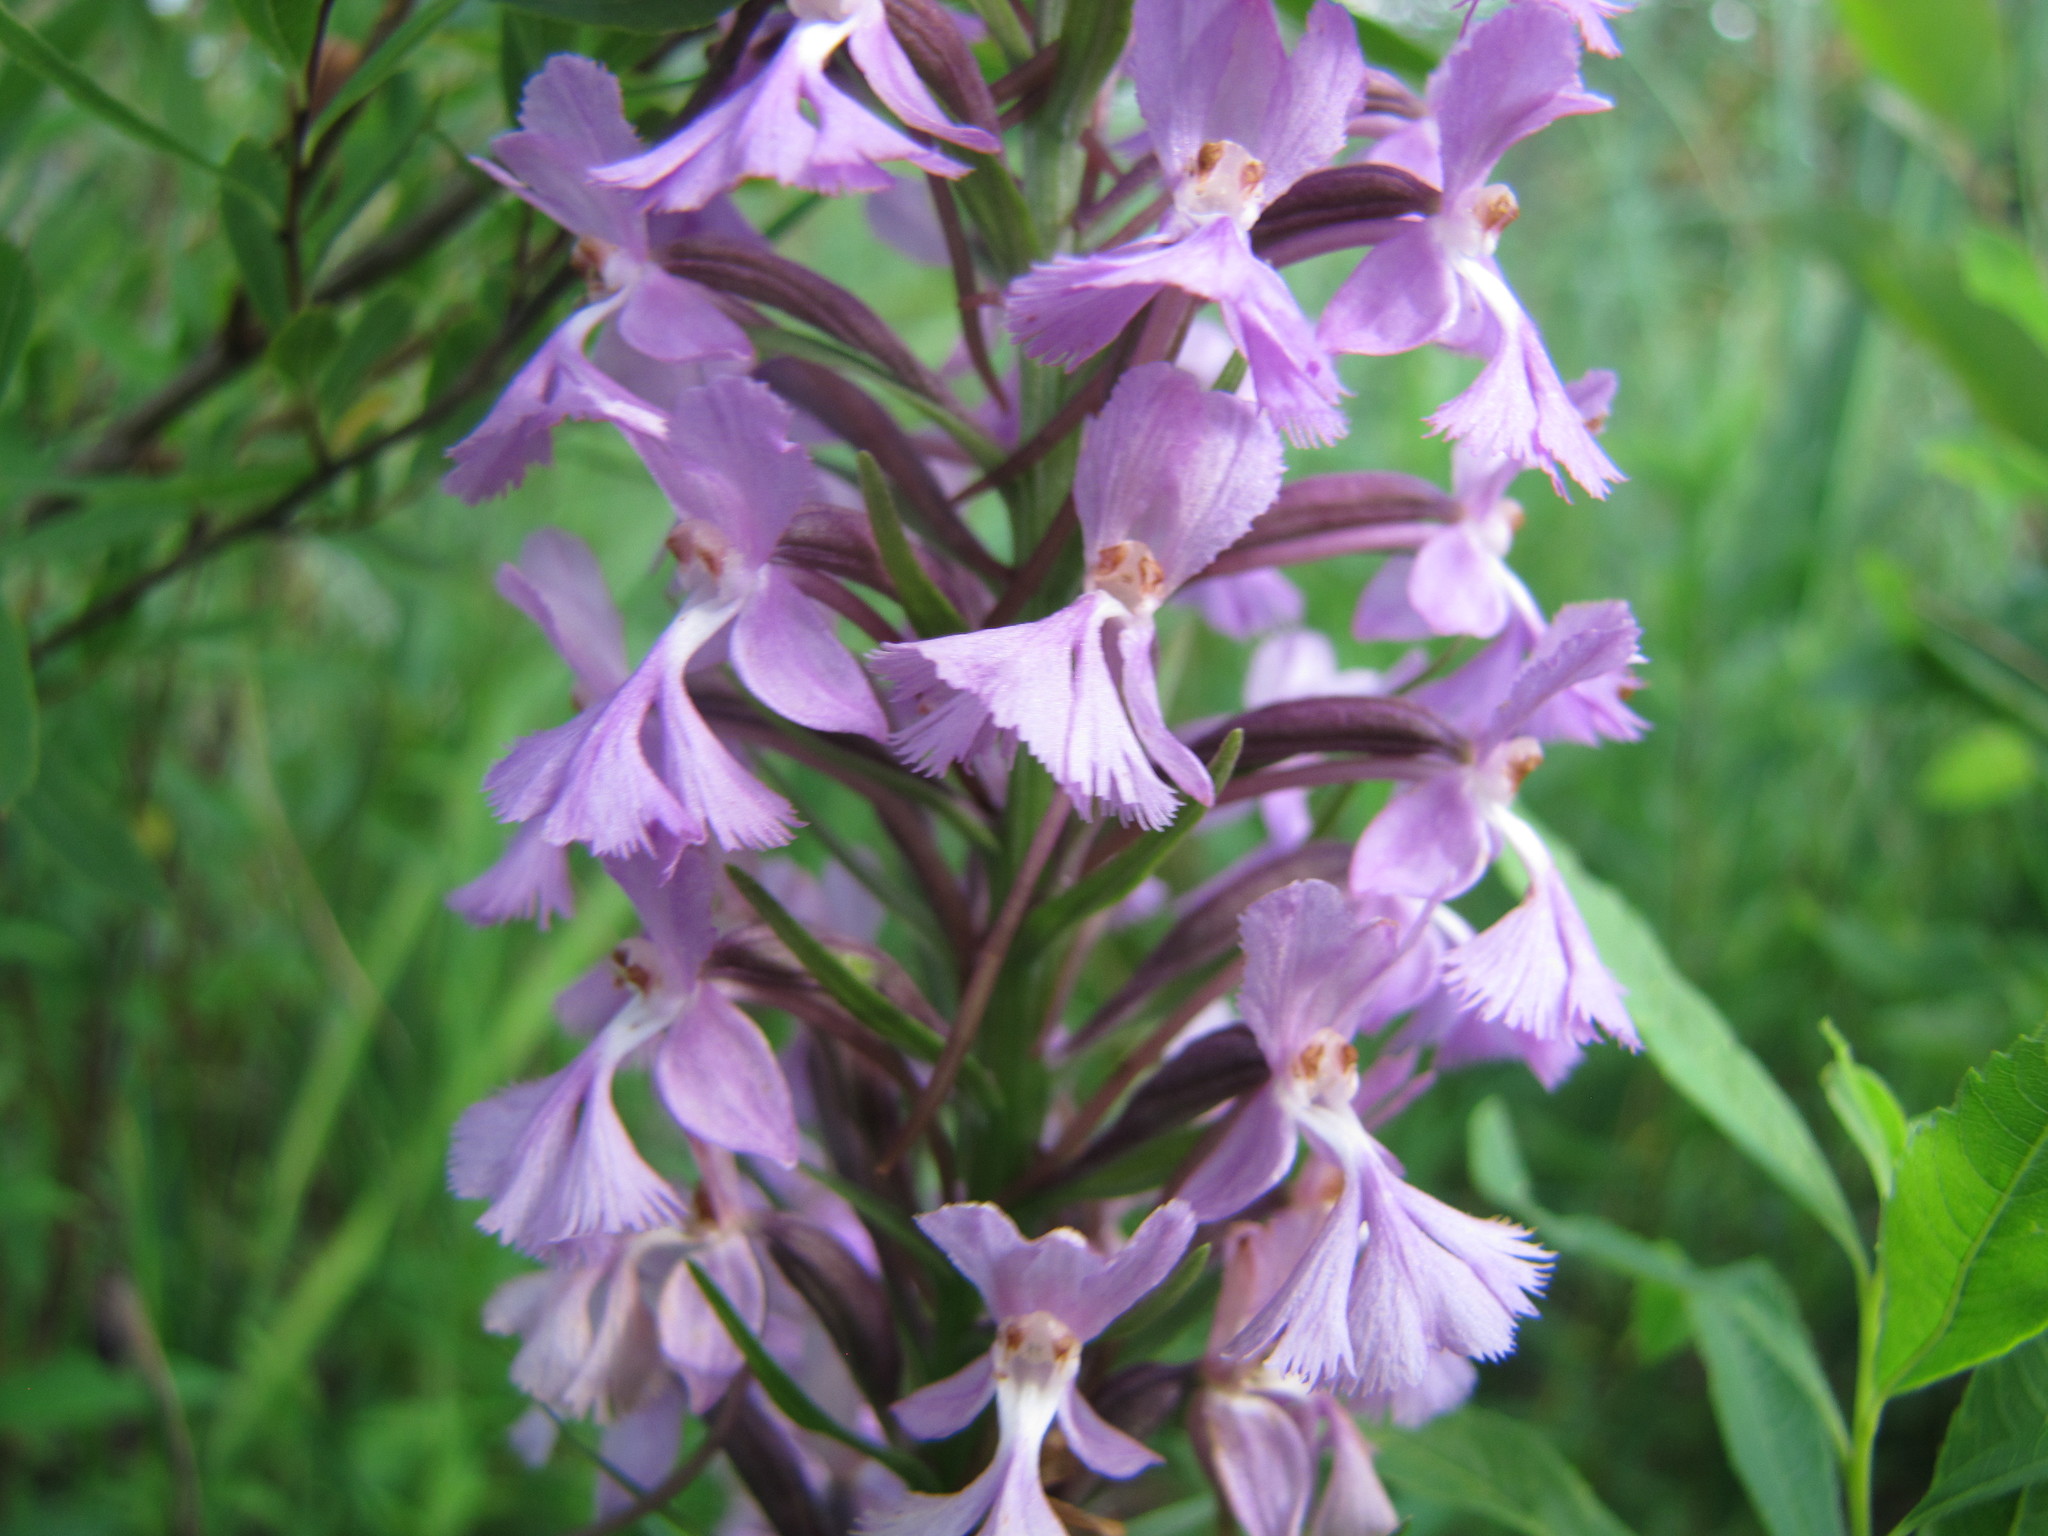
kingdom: Plantae
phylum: Tracheophyta
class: Liliopsida
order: Asparagales
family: Orchidaceae
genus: Platanthera
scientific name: Platanthera psycodes
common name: Lesser purple fringed orchid
